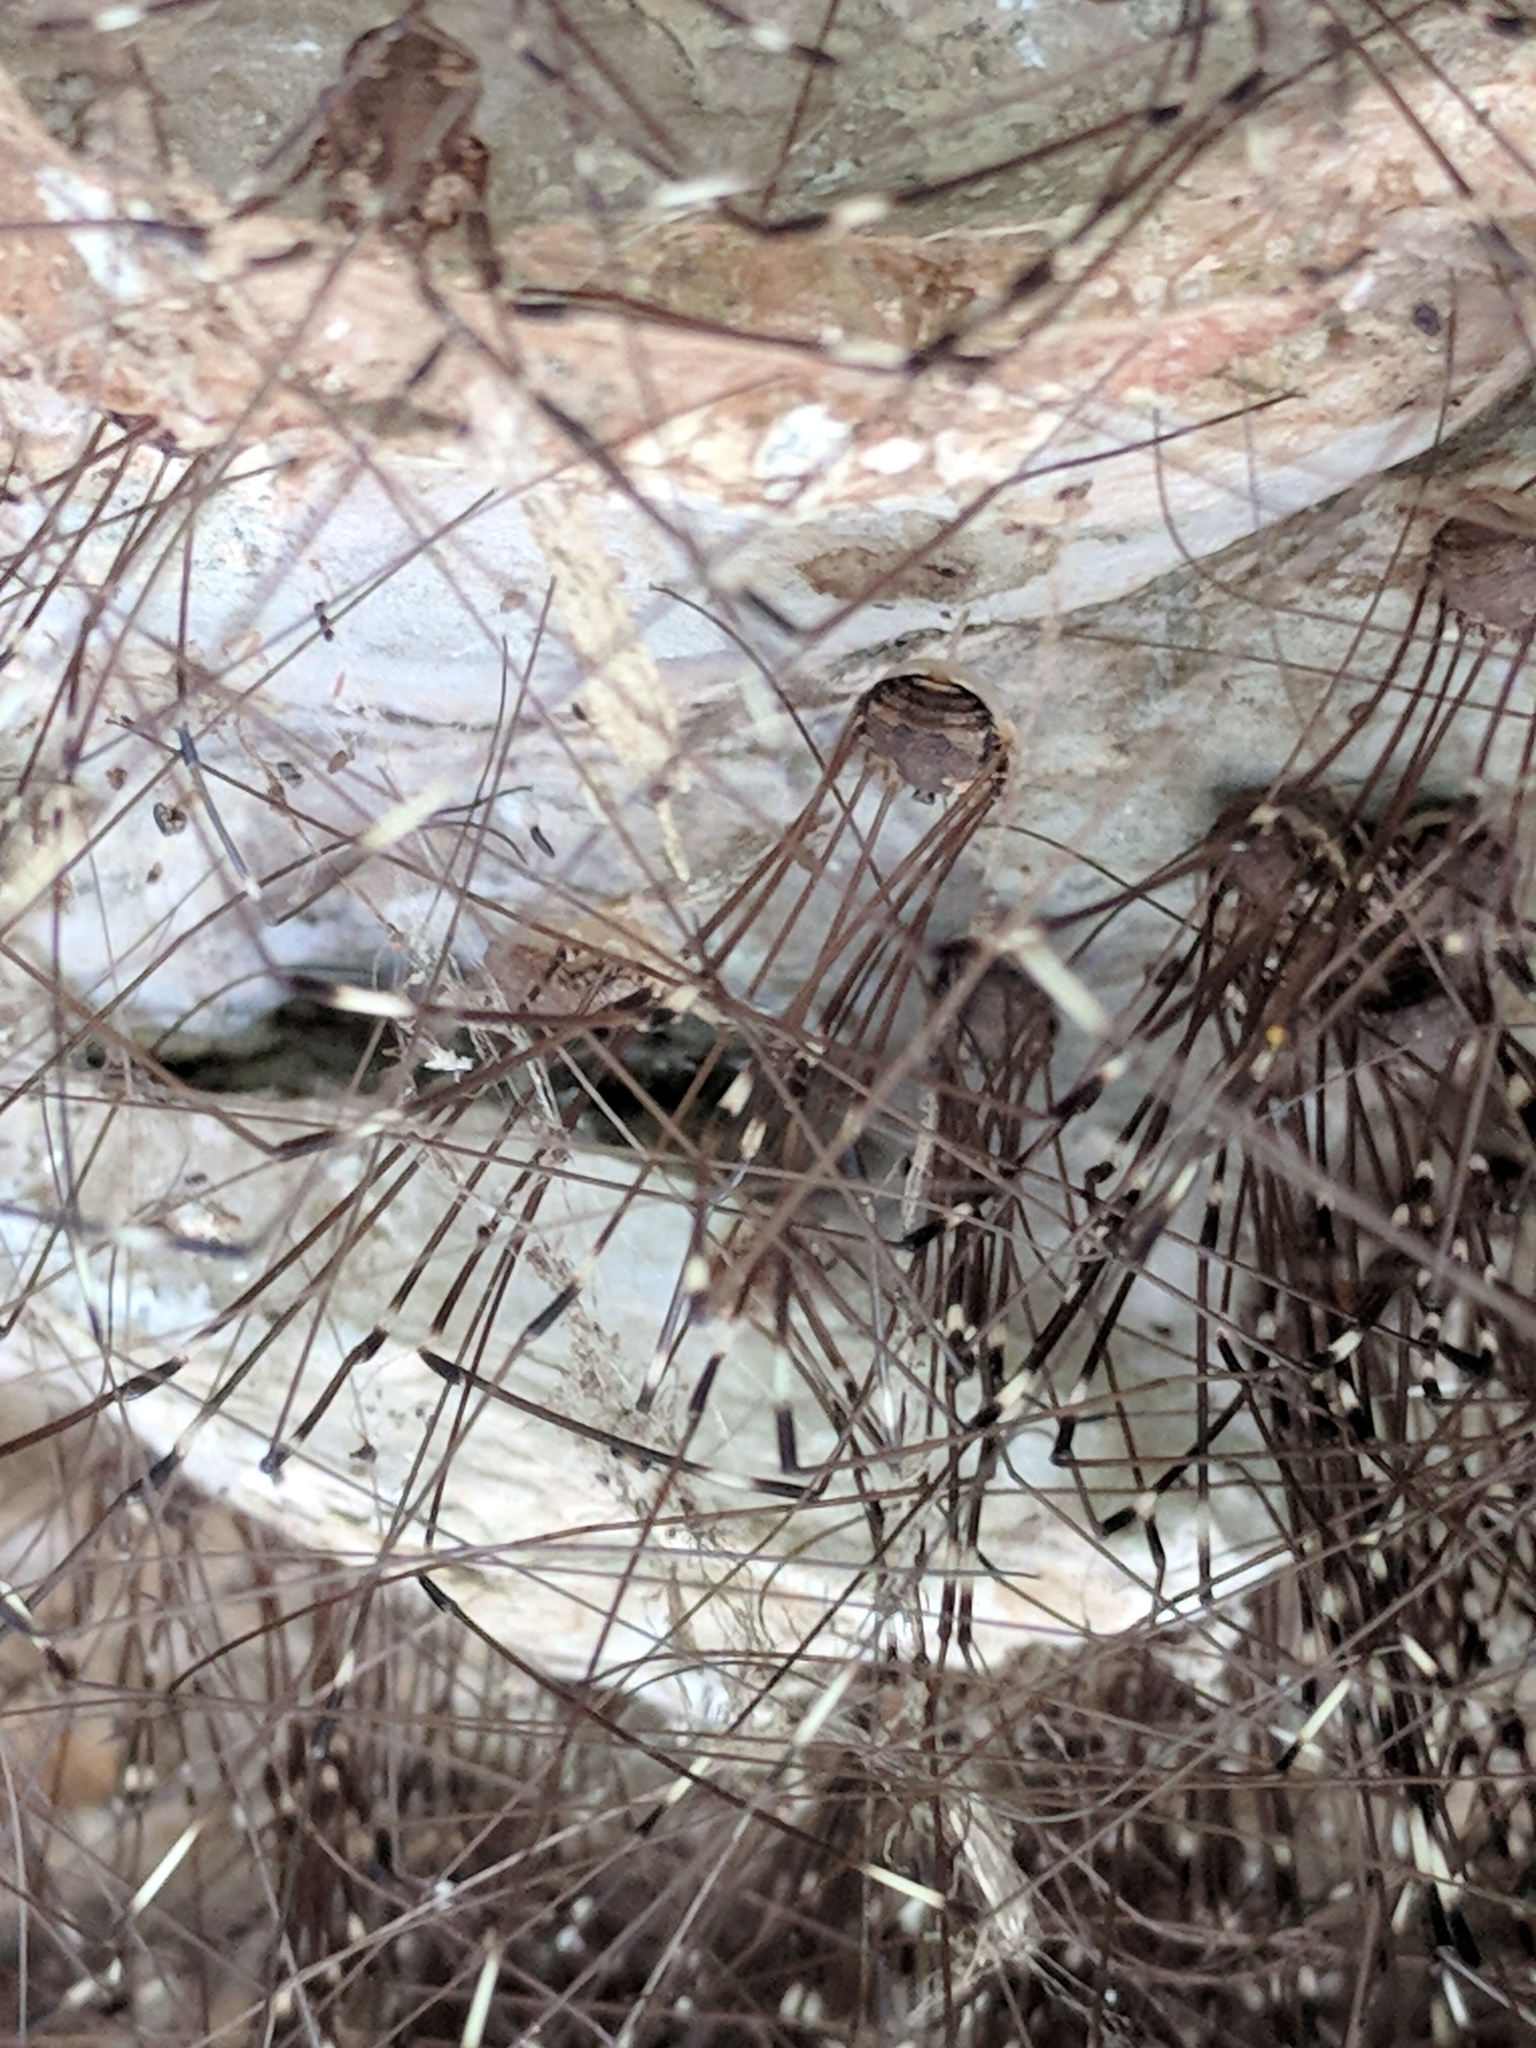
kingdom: Animalia
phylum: Arthropoda
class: Arachnida
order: Opiliones
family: Sclerosomatidae
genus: Leiobunum
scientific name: Leiobunum townsendi
